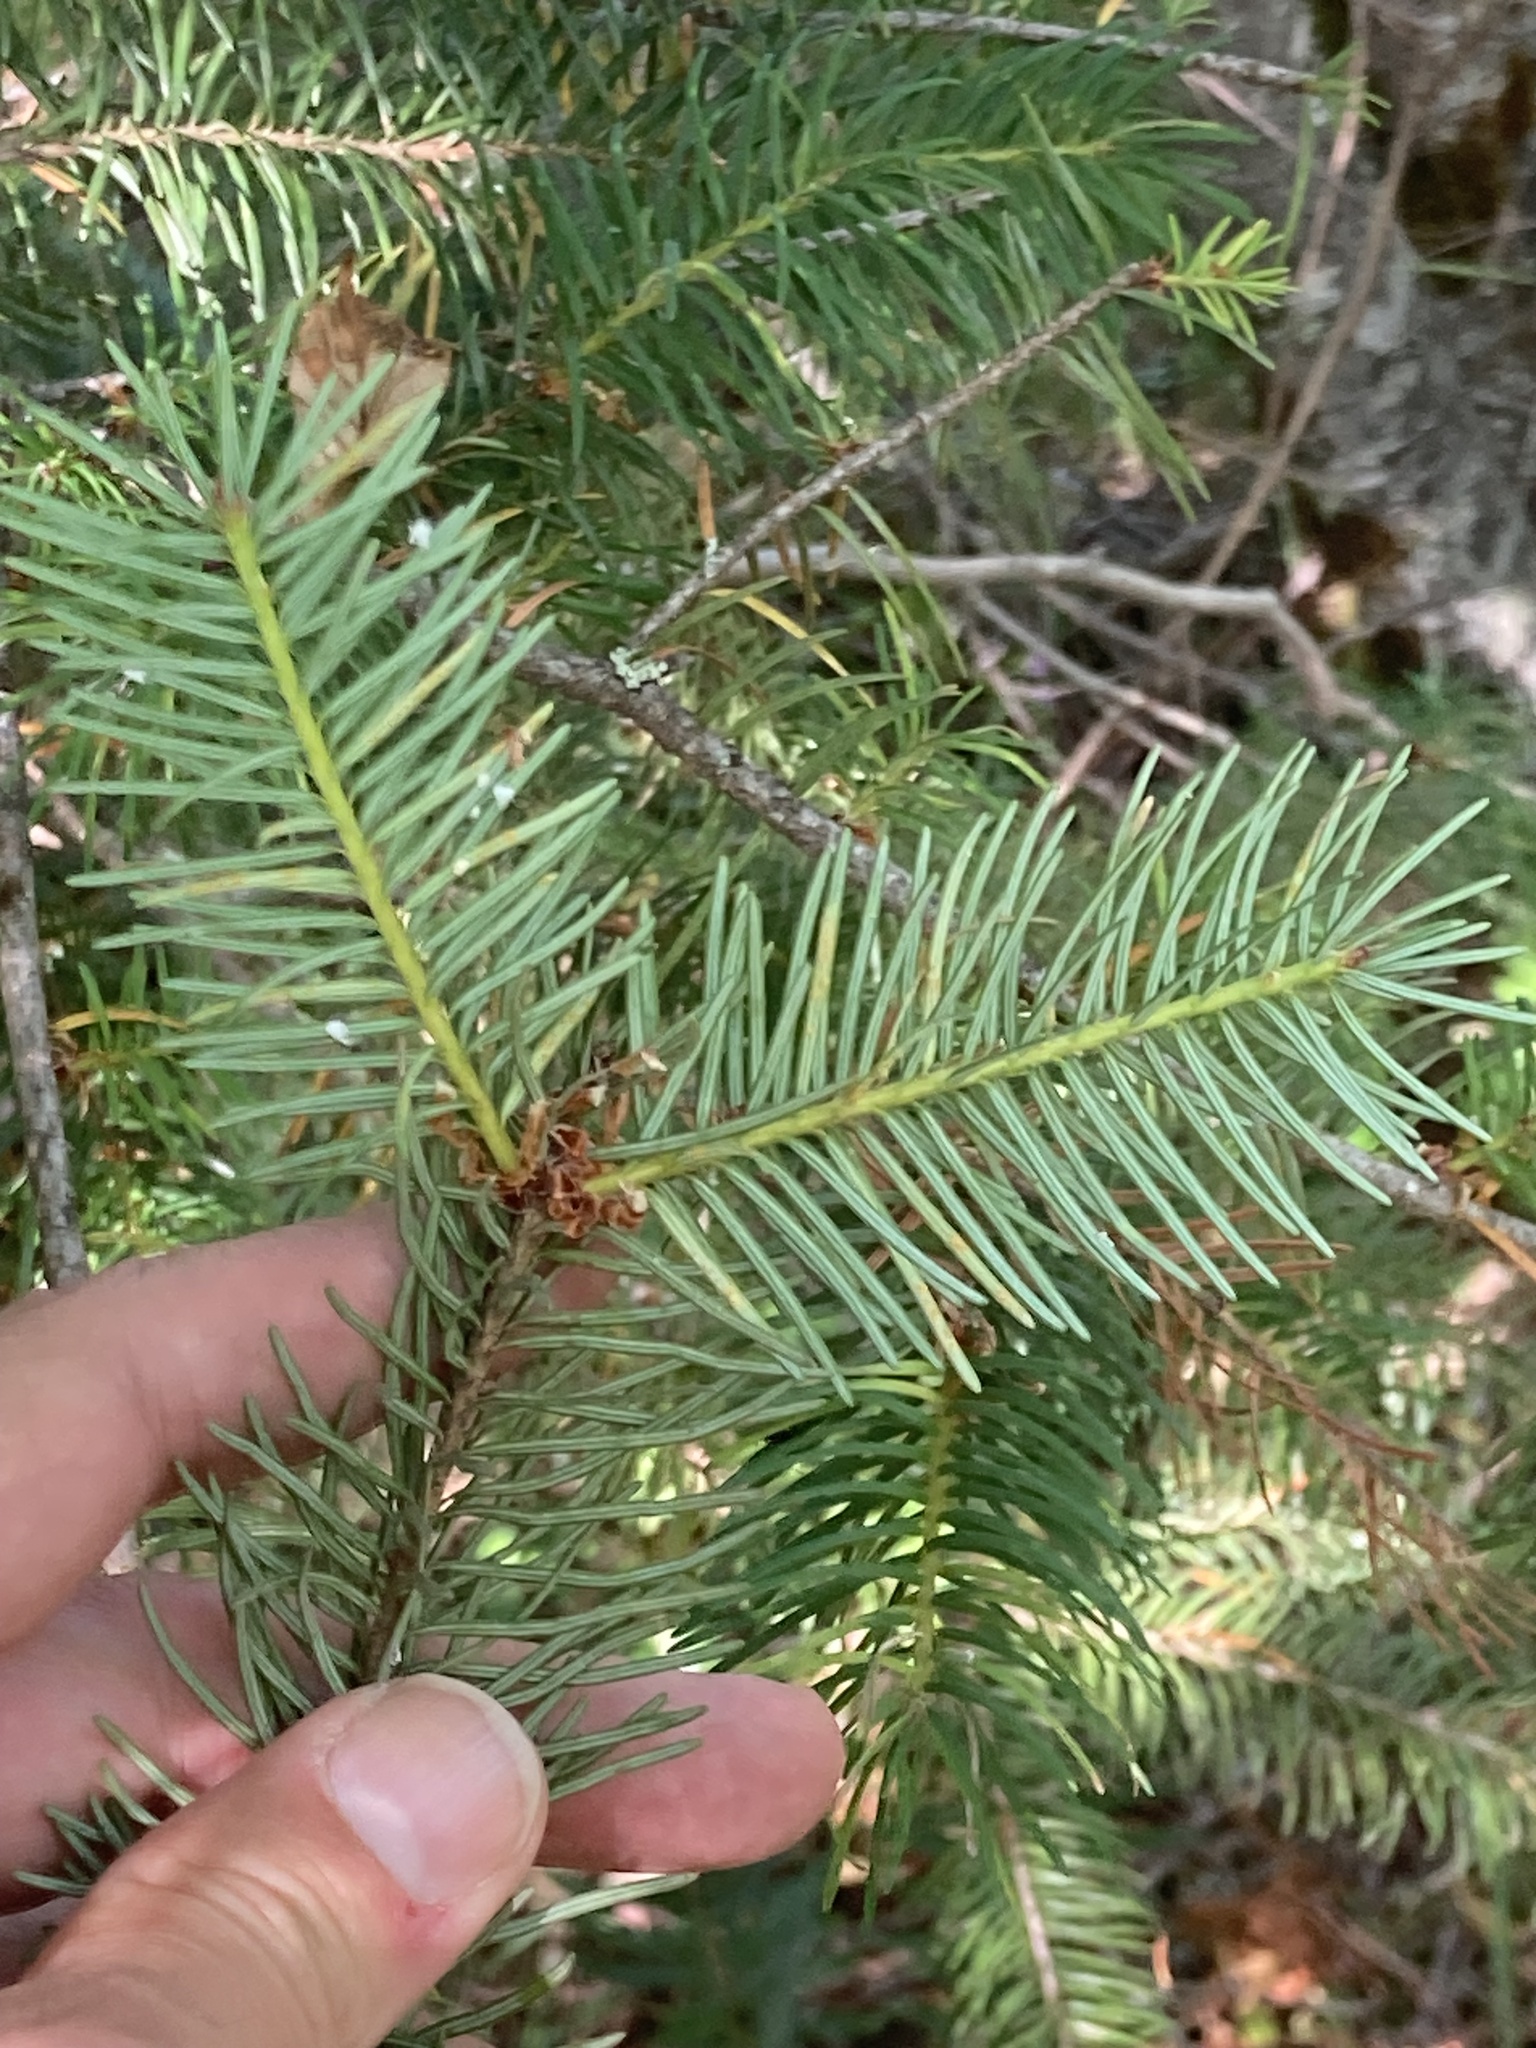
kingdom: Plantae
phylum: Tracheophyta
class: Pinopsida
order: Pinales
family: Pinaceae
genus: Pseudotsuga
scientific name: Pseudotsuga menziesii
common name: Douglas fir
